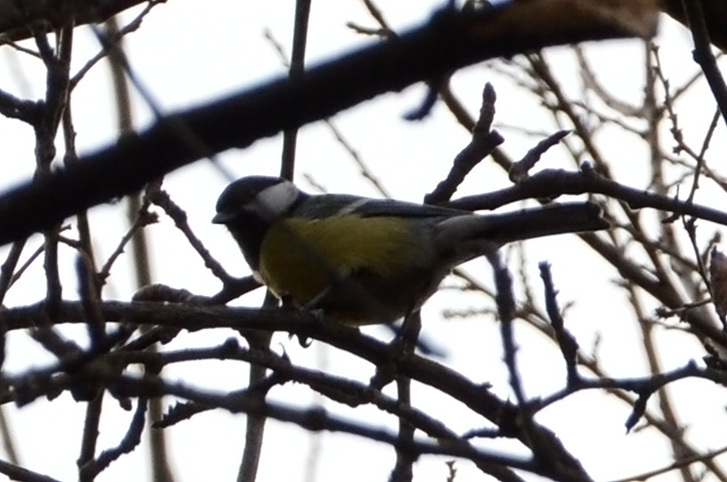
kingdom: Animalia
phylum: Chordata
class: Aves
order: Passeriformes
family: Paridae
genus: Parus
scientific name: Parus major
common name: Great tit
